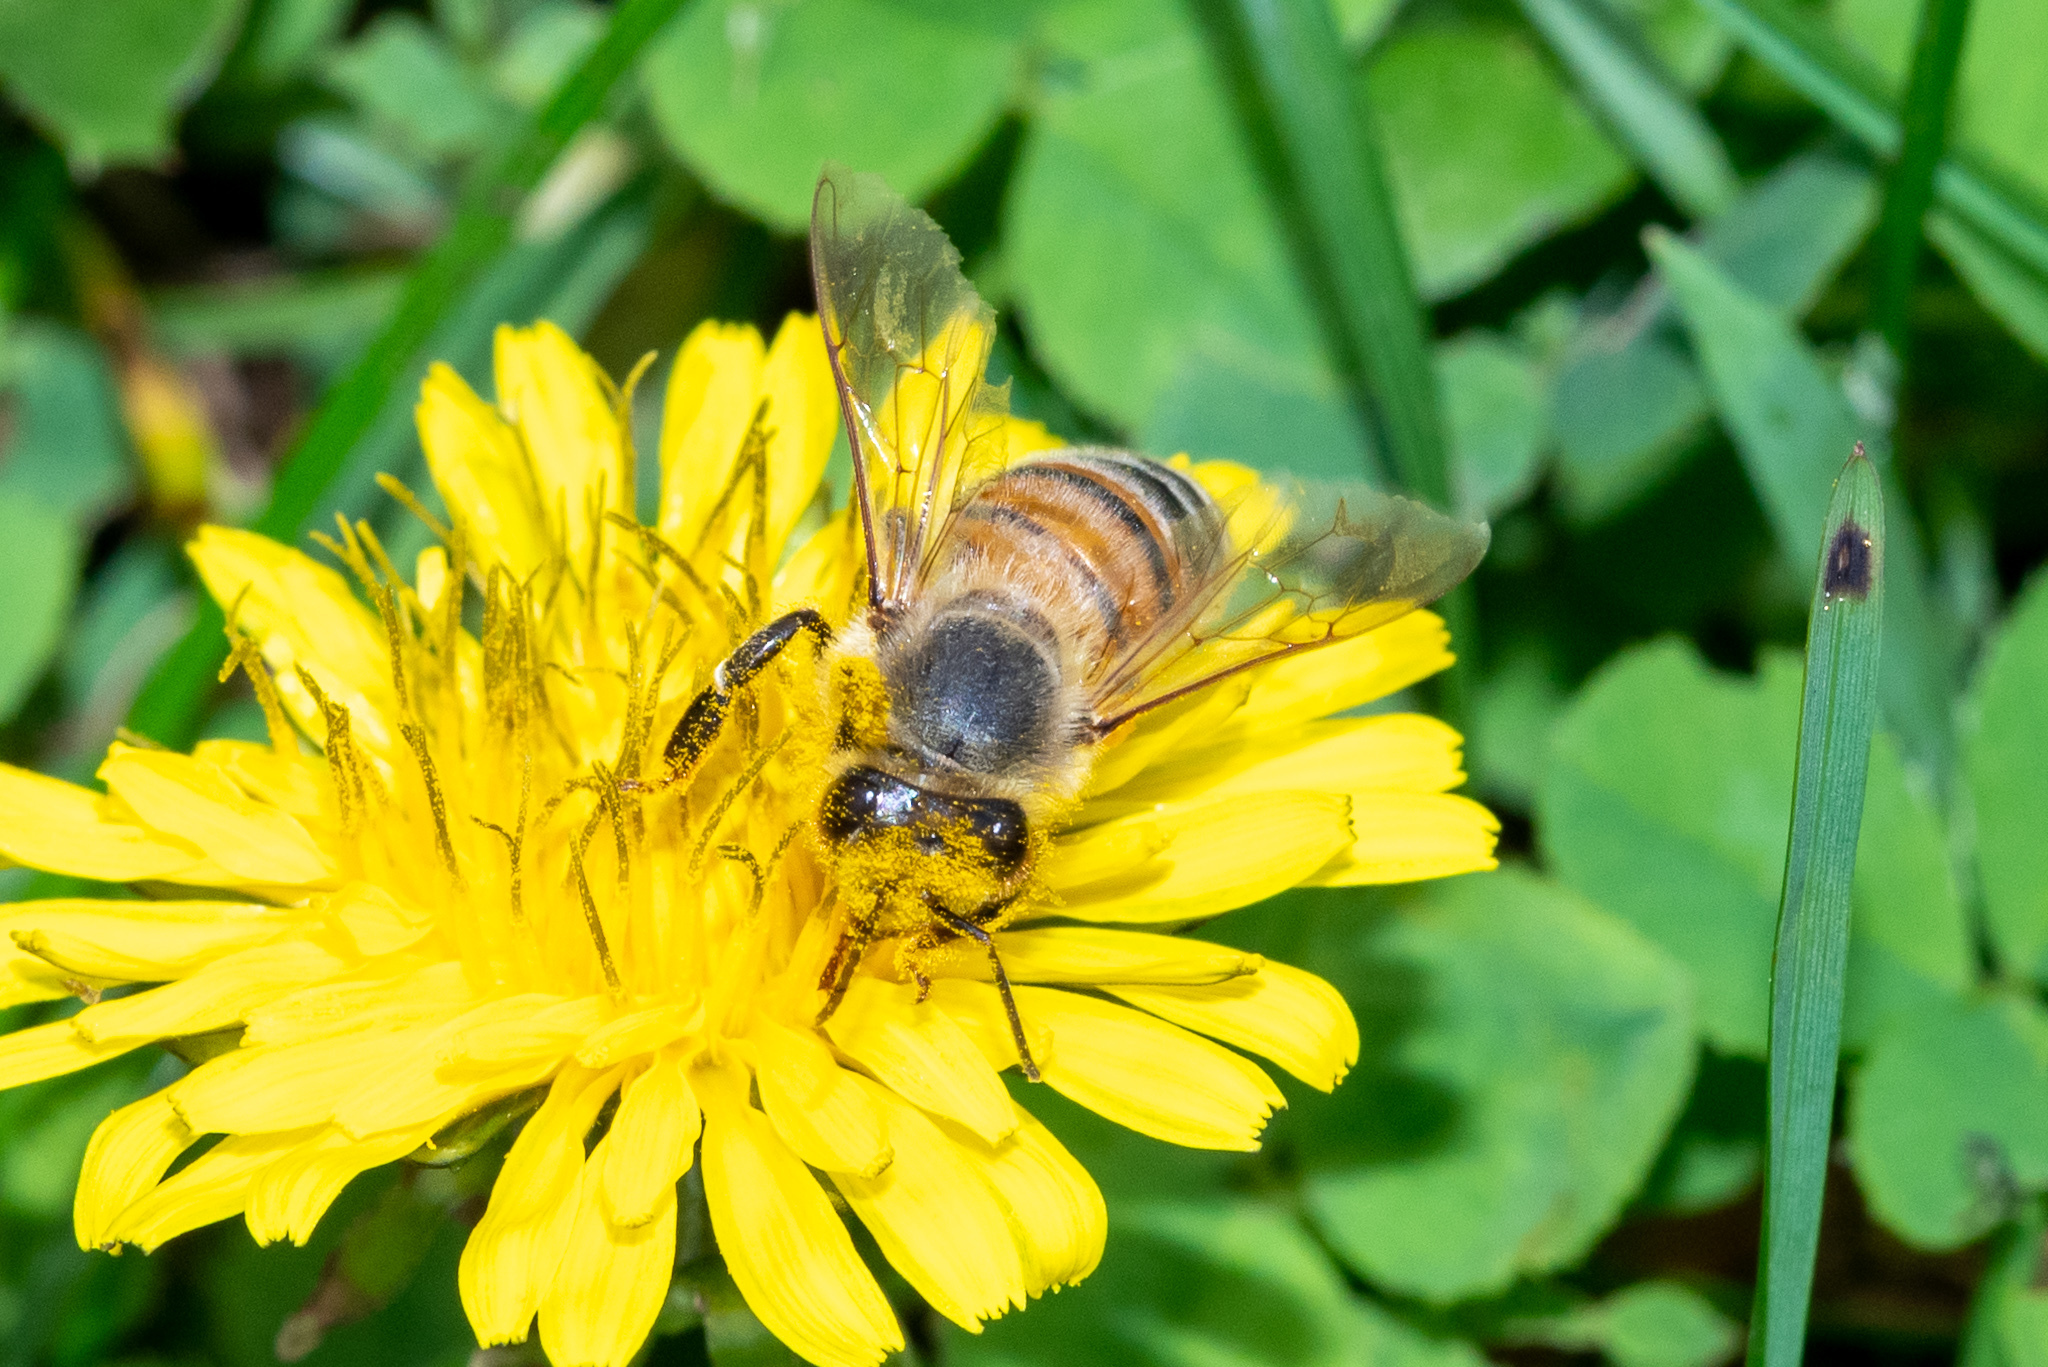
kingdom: Animalia
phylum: Arthropoda
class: Insecta
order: Hymenoptera
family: Apidae
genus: Apis
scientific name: Apis mellifera
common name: Honey bee
